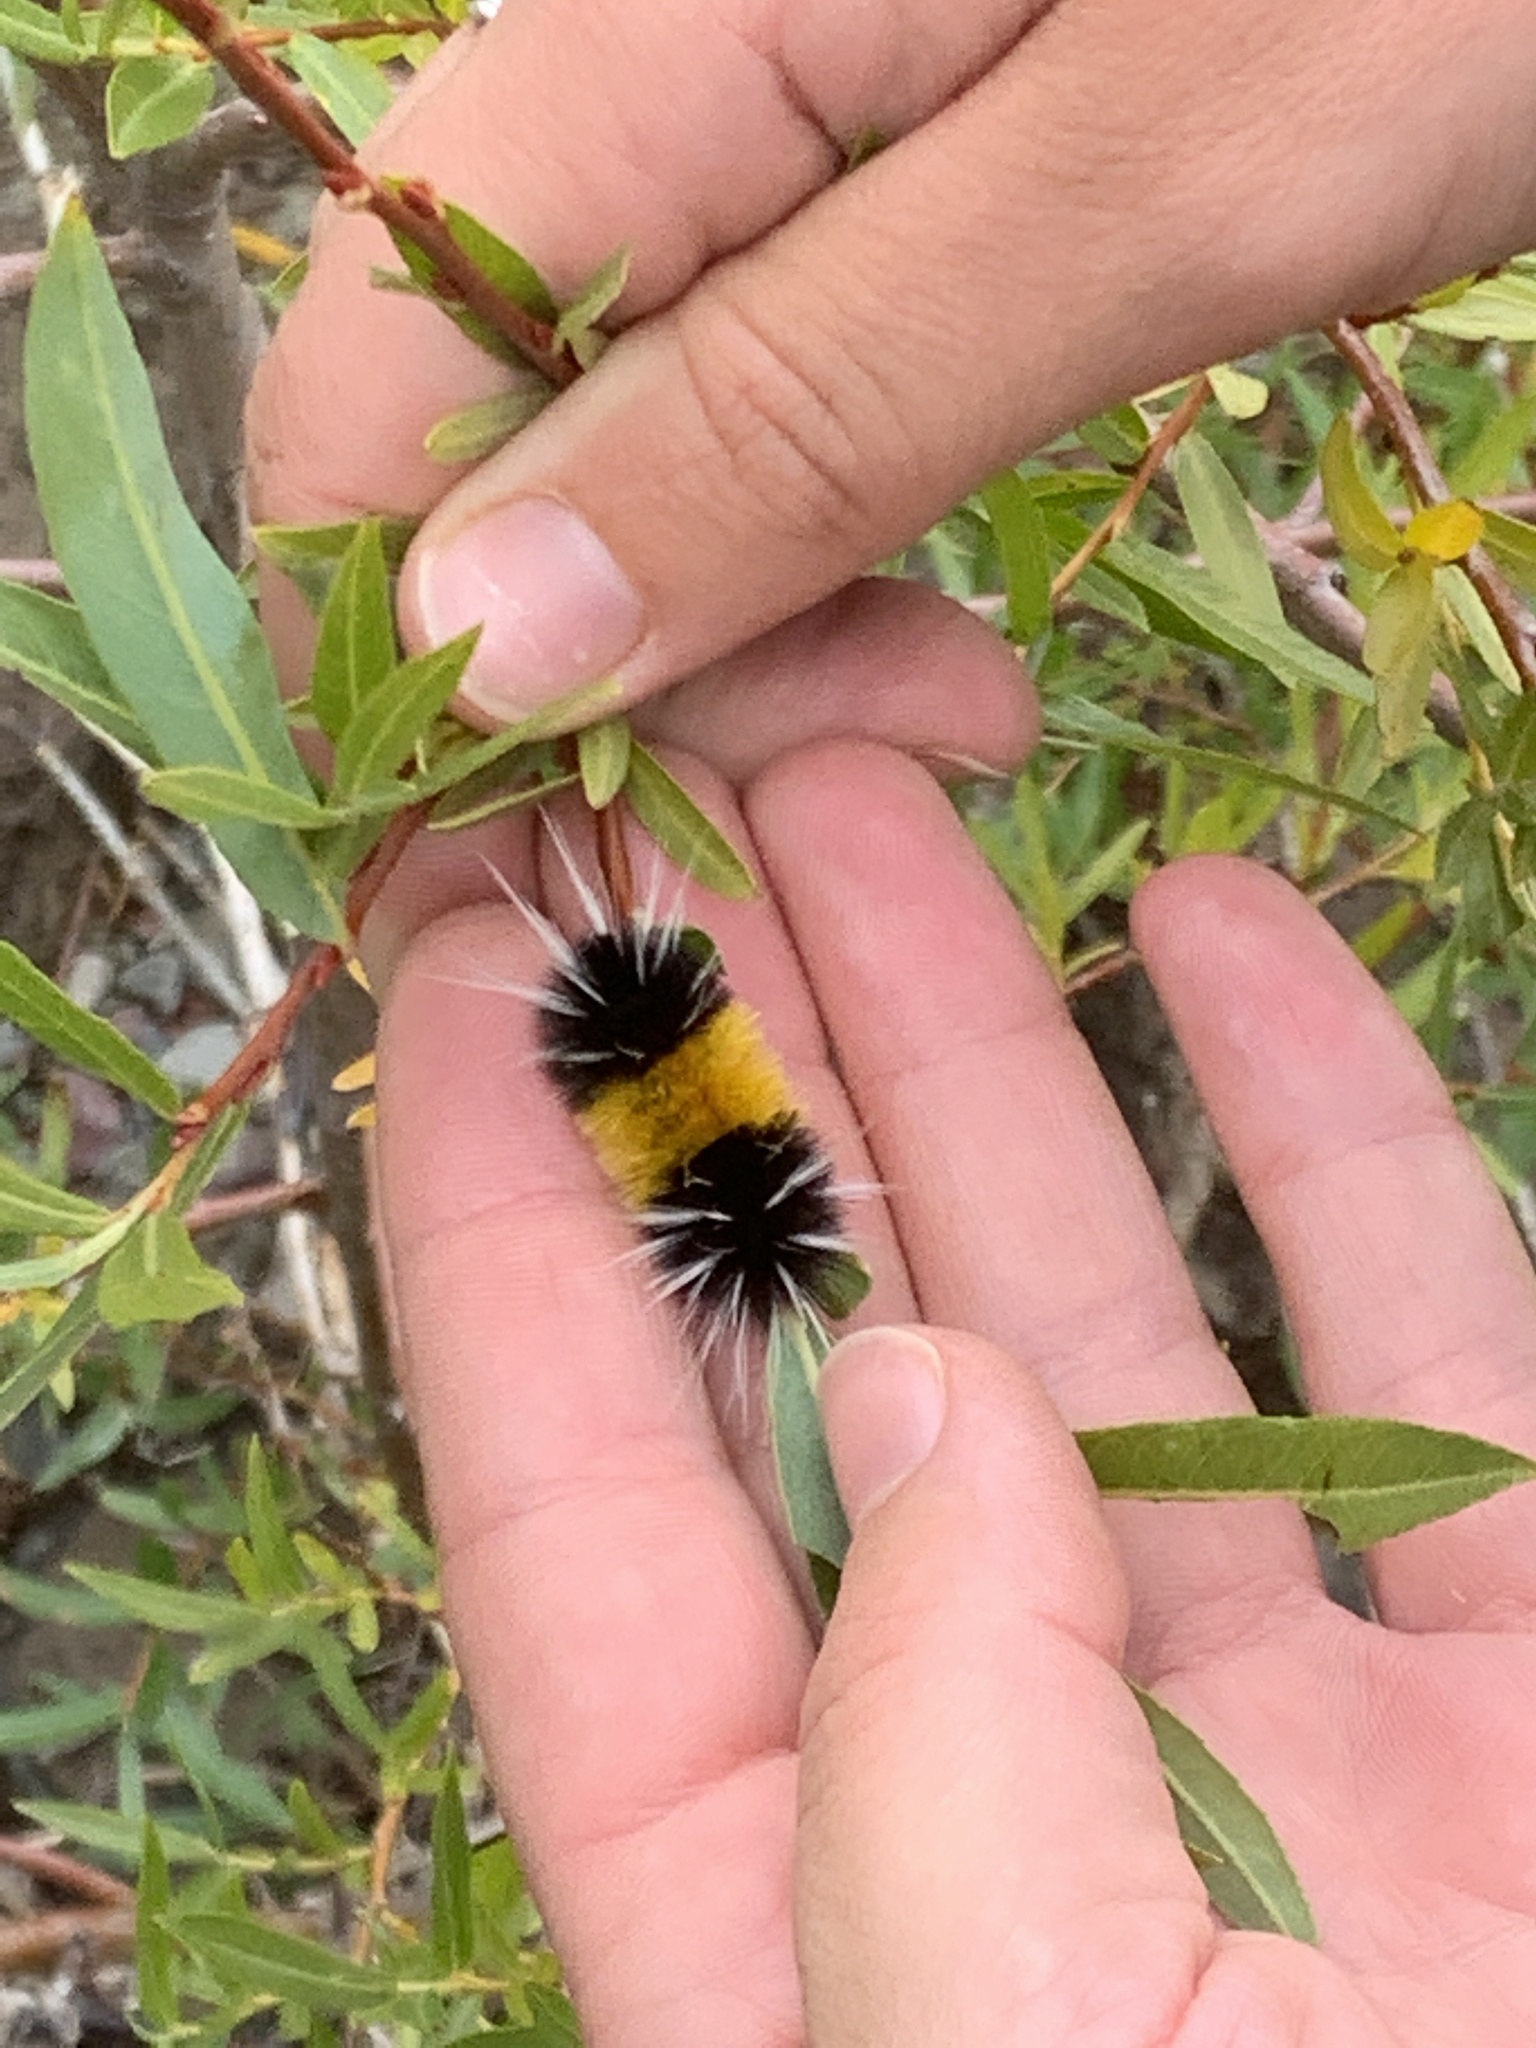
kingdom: Animalia
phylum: Arthropoda
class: Insecta
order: Lepidoptera
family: Erebidae
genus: Lophocampa
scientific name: Lophocampa maculata
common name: Spotted tussock moth
